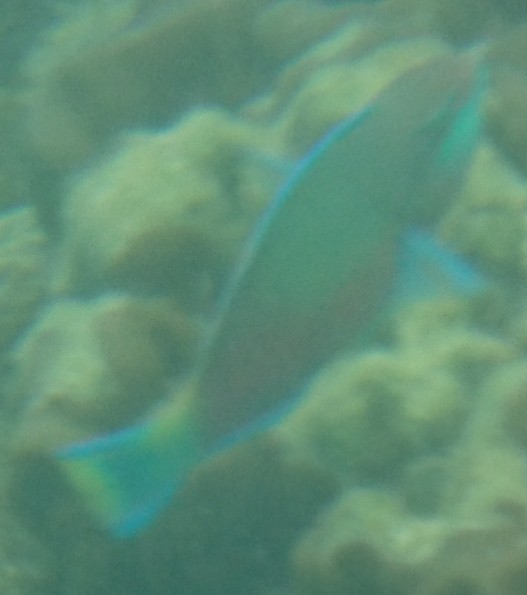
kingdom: Animalia
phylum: Chordata
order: Perciformes
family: Scaridae
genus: Scarus
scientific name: Scarus quoyi
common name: Quoy's parrotfish
